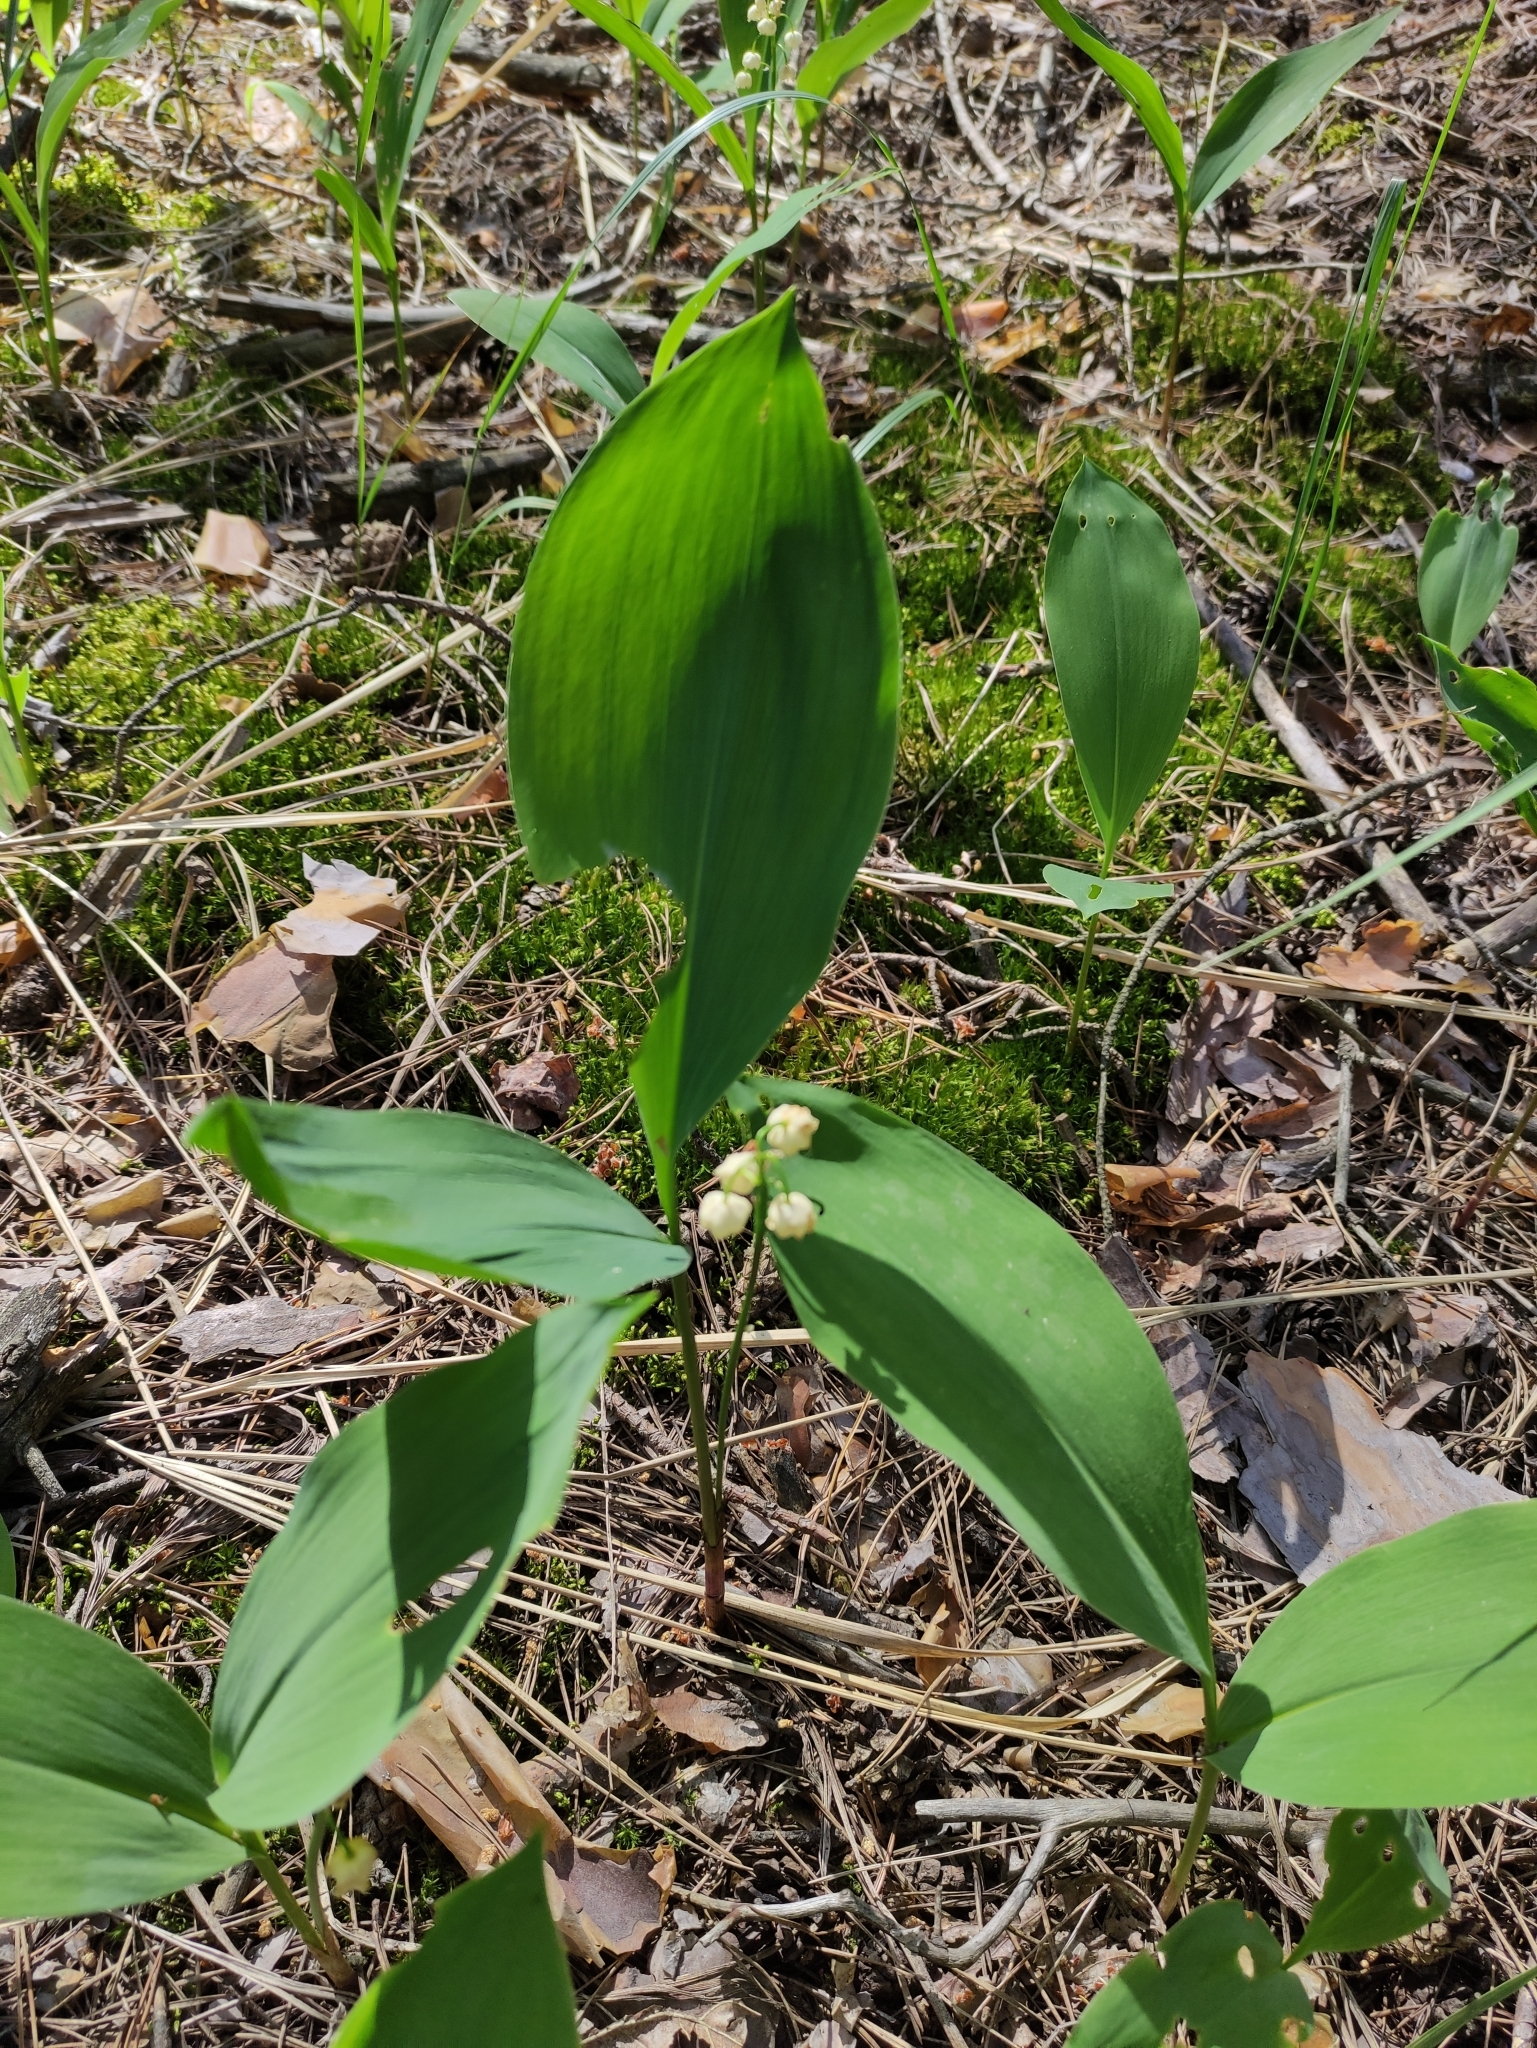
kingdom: Plantae
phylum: Tracheophyta
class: Liliopsida
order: Asparagales
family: Asparagaceae
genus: Convallaria
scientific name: Convallaria majalis
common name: Lily-of-the-valley
